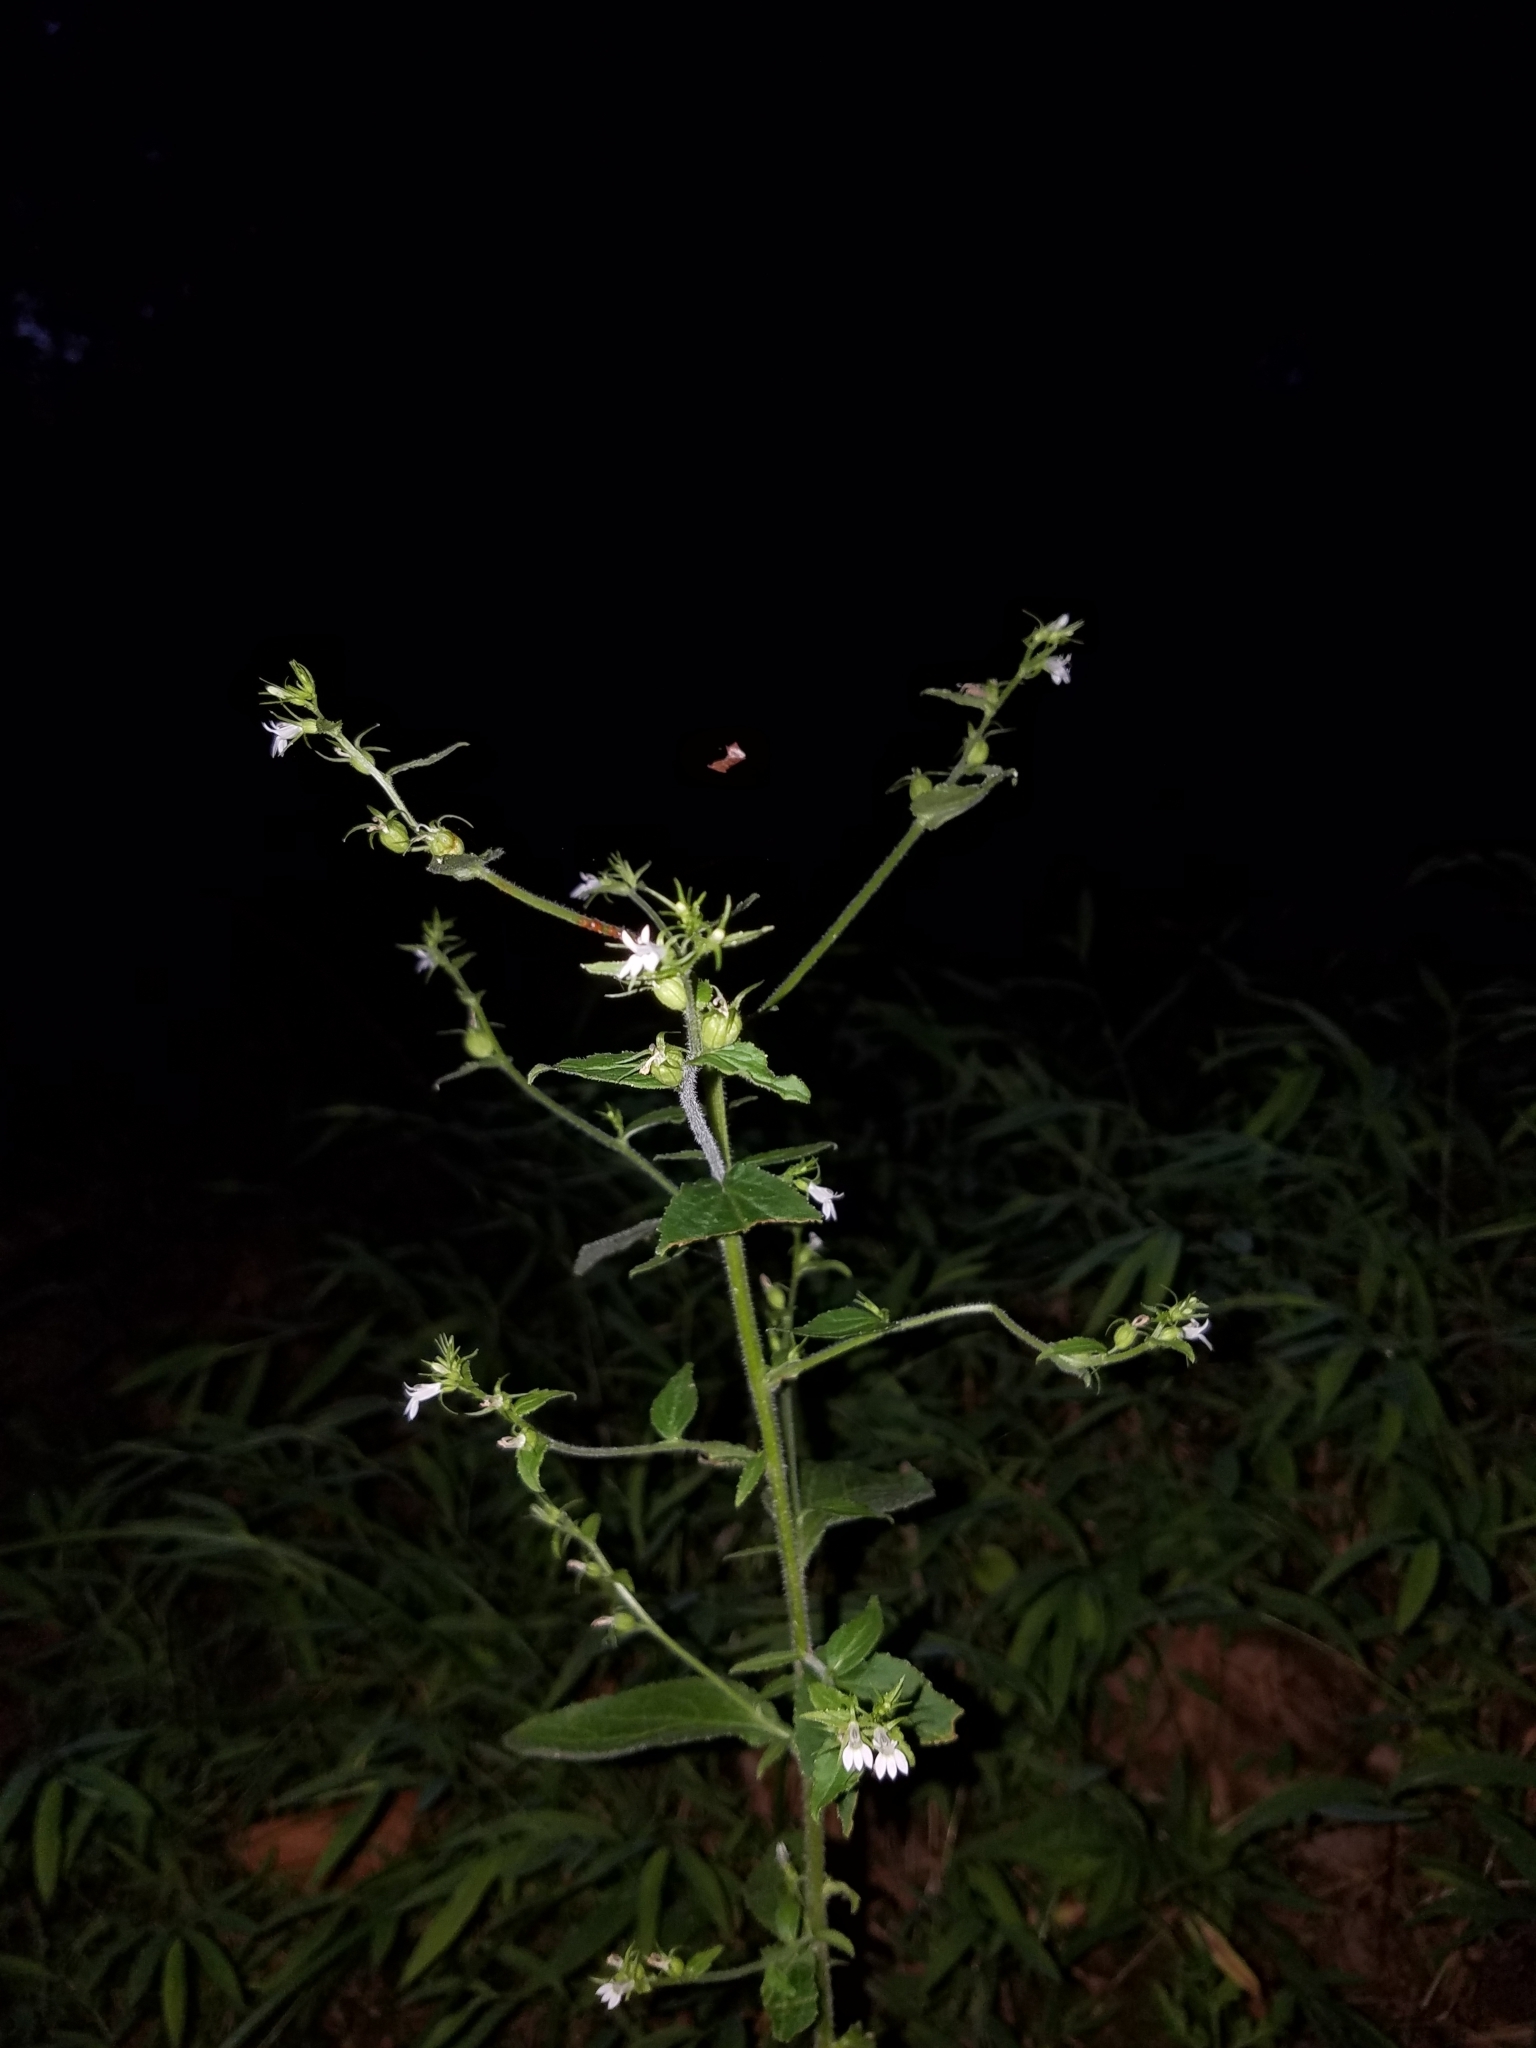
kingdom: Plantae
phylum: Tracheophyta
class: Magnoliopsida
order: Asterales
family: Campanulaceae
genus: Lobelia
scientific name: Lobelia inflata
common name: Indian tobacco
